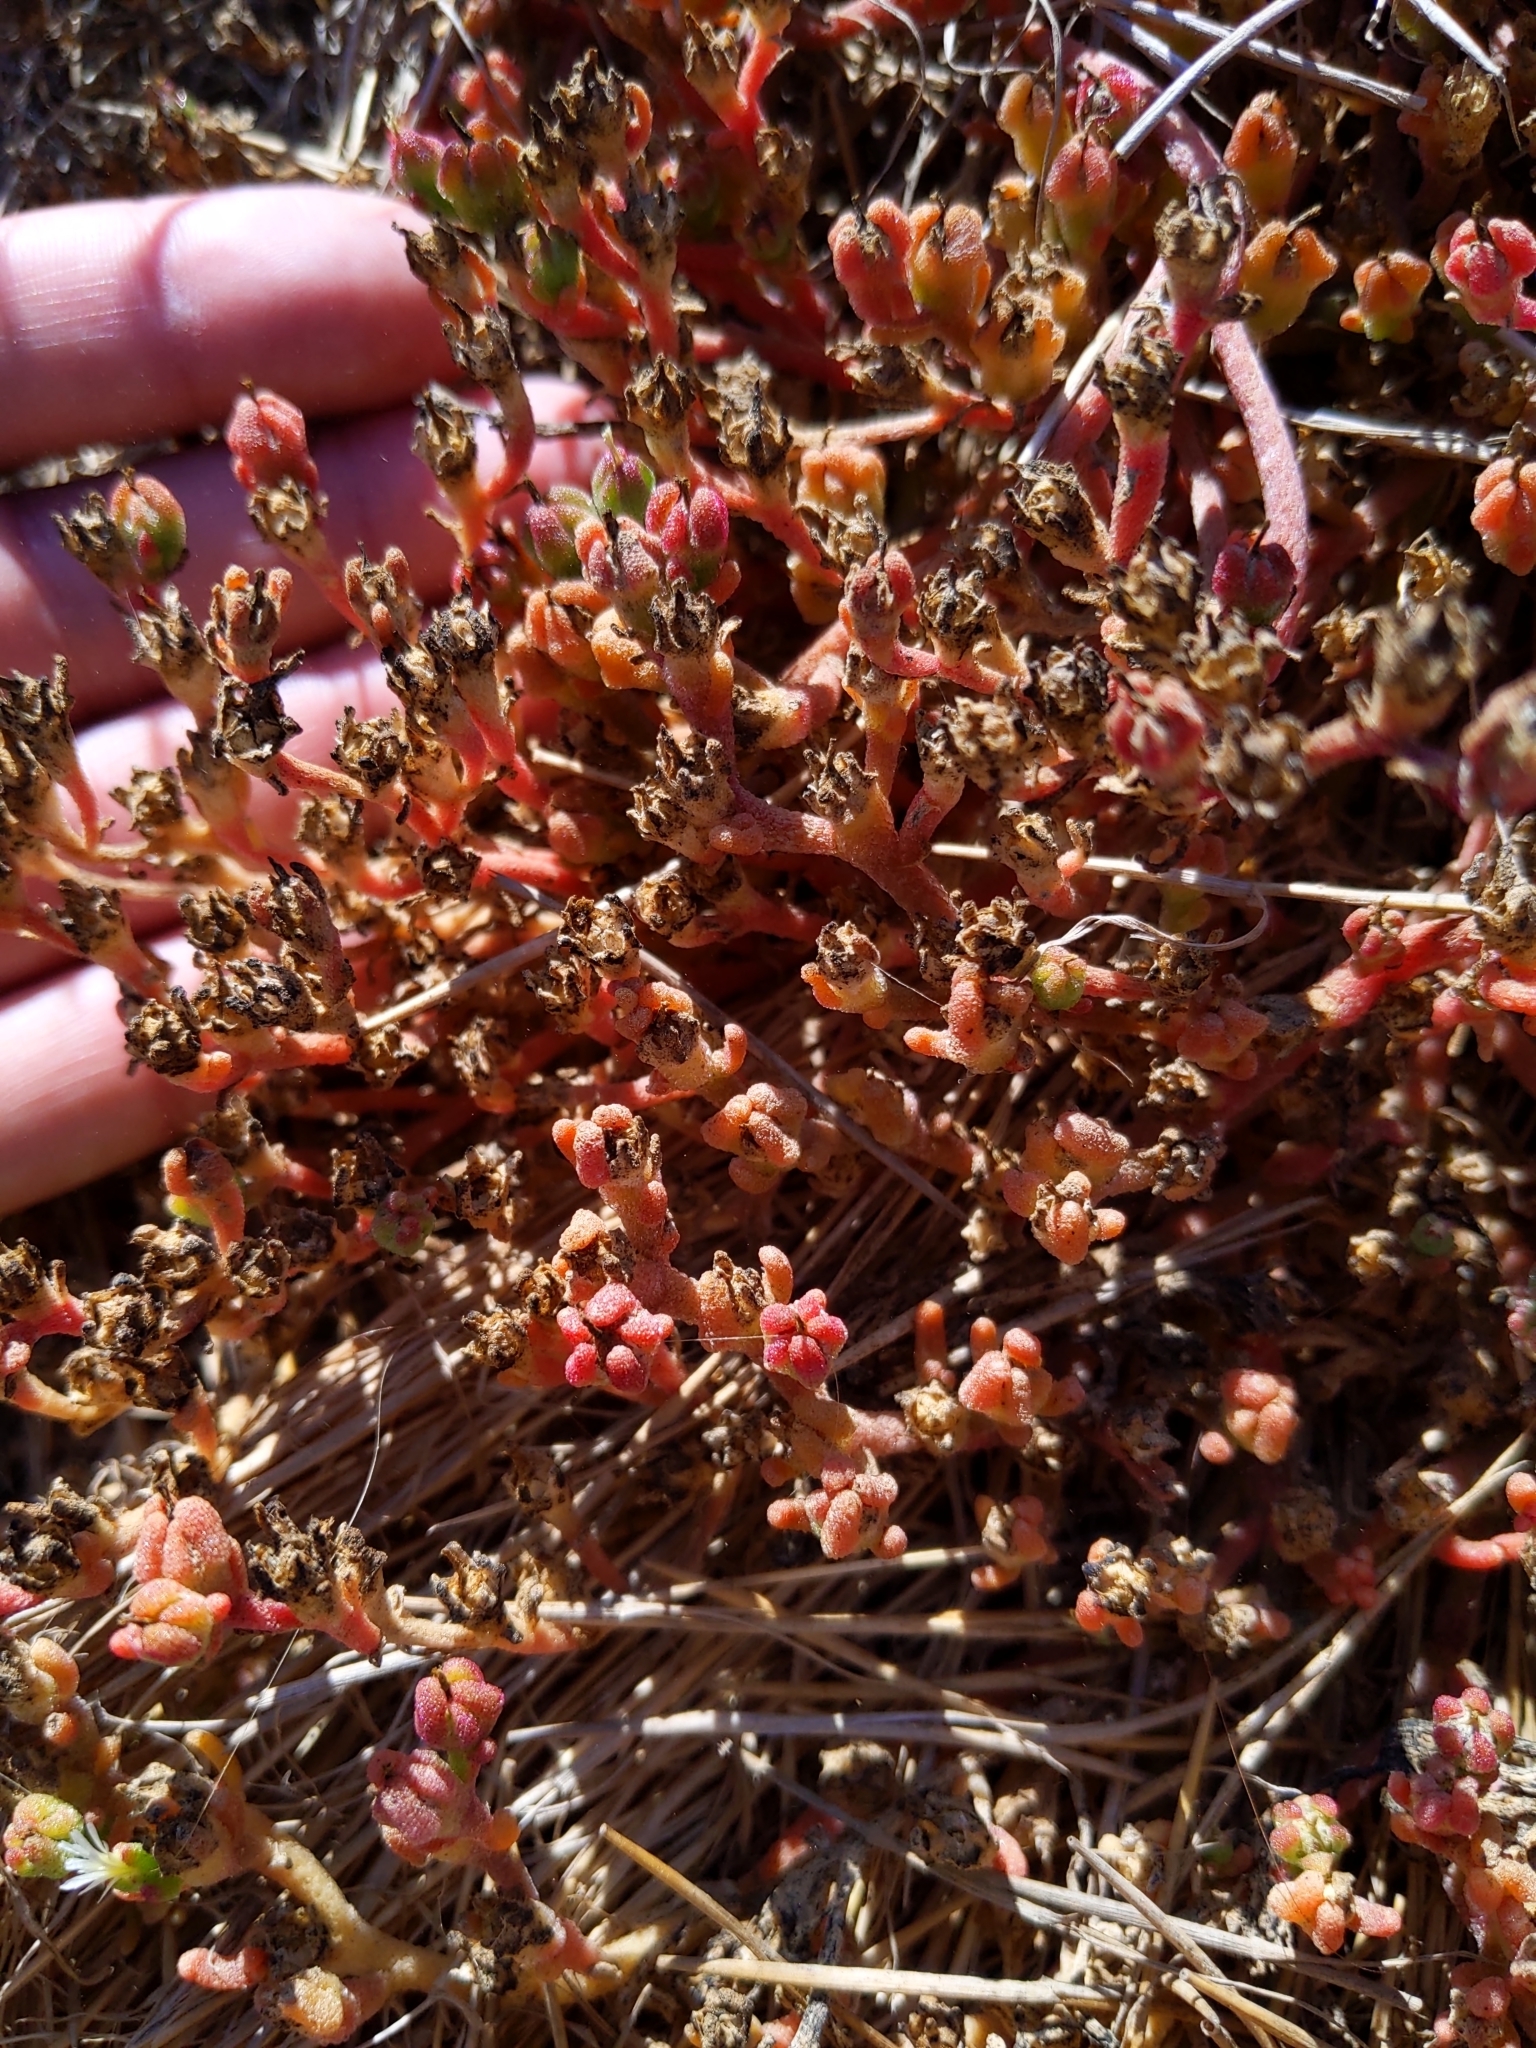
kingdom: Plantae
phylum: Tracheophyta
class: Magnoliopsida
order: Caryophyllales
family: Aizoaceae
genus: Mesembryanthemum
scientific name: Mesembryanthemum nodiflorum
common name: Slenderleaf iceplant
